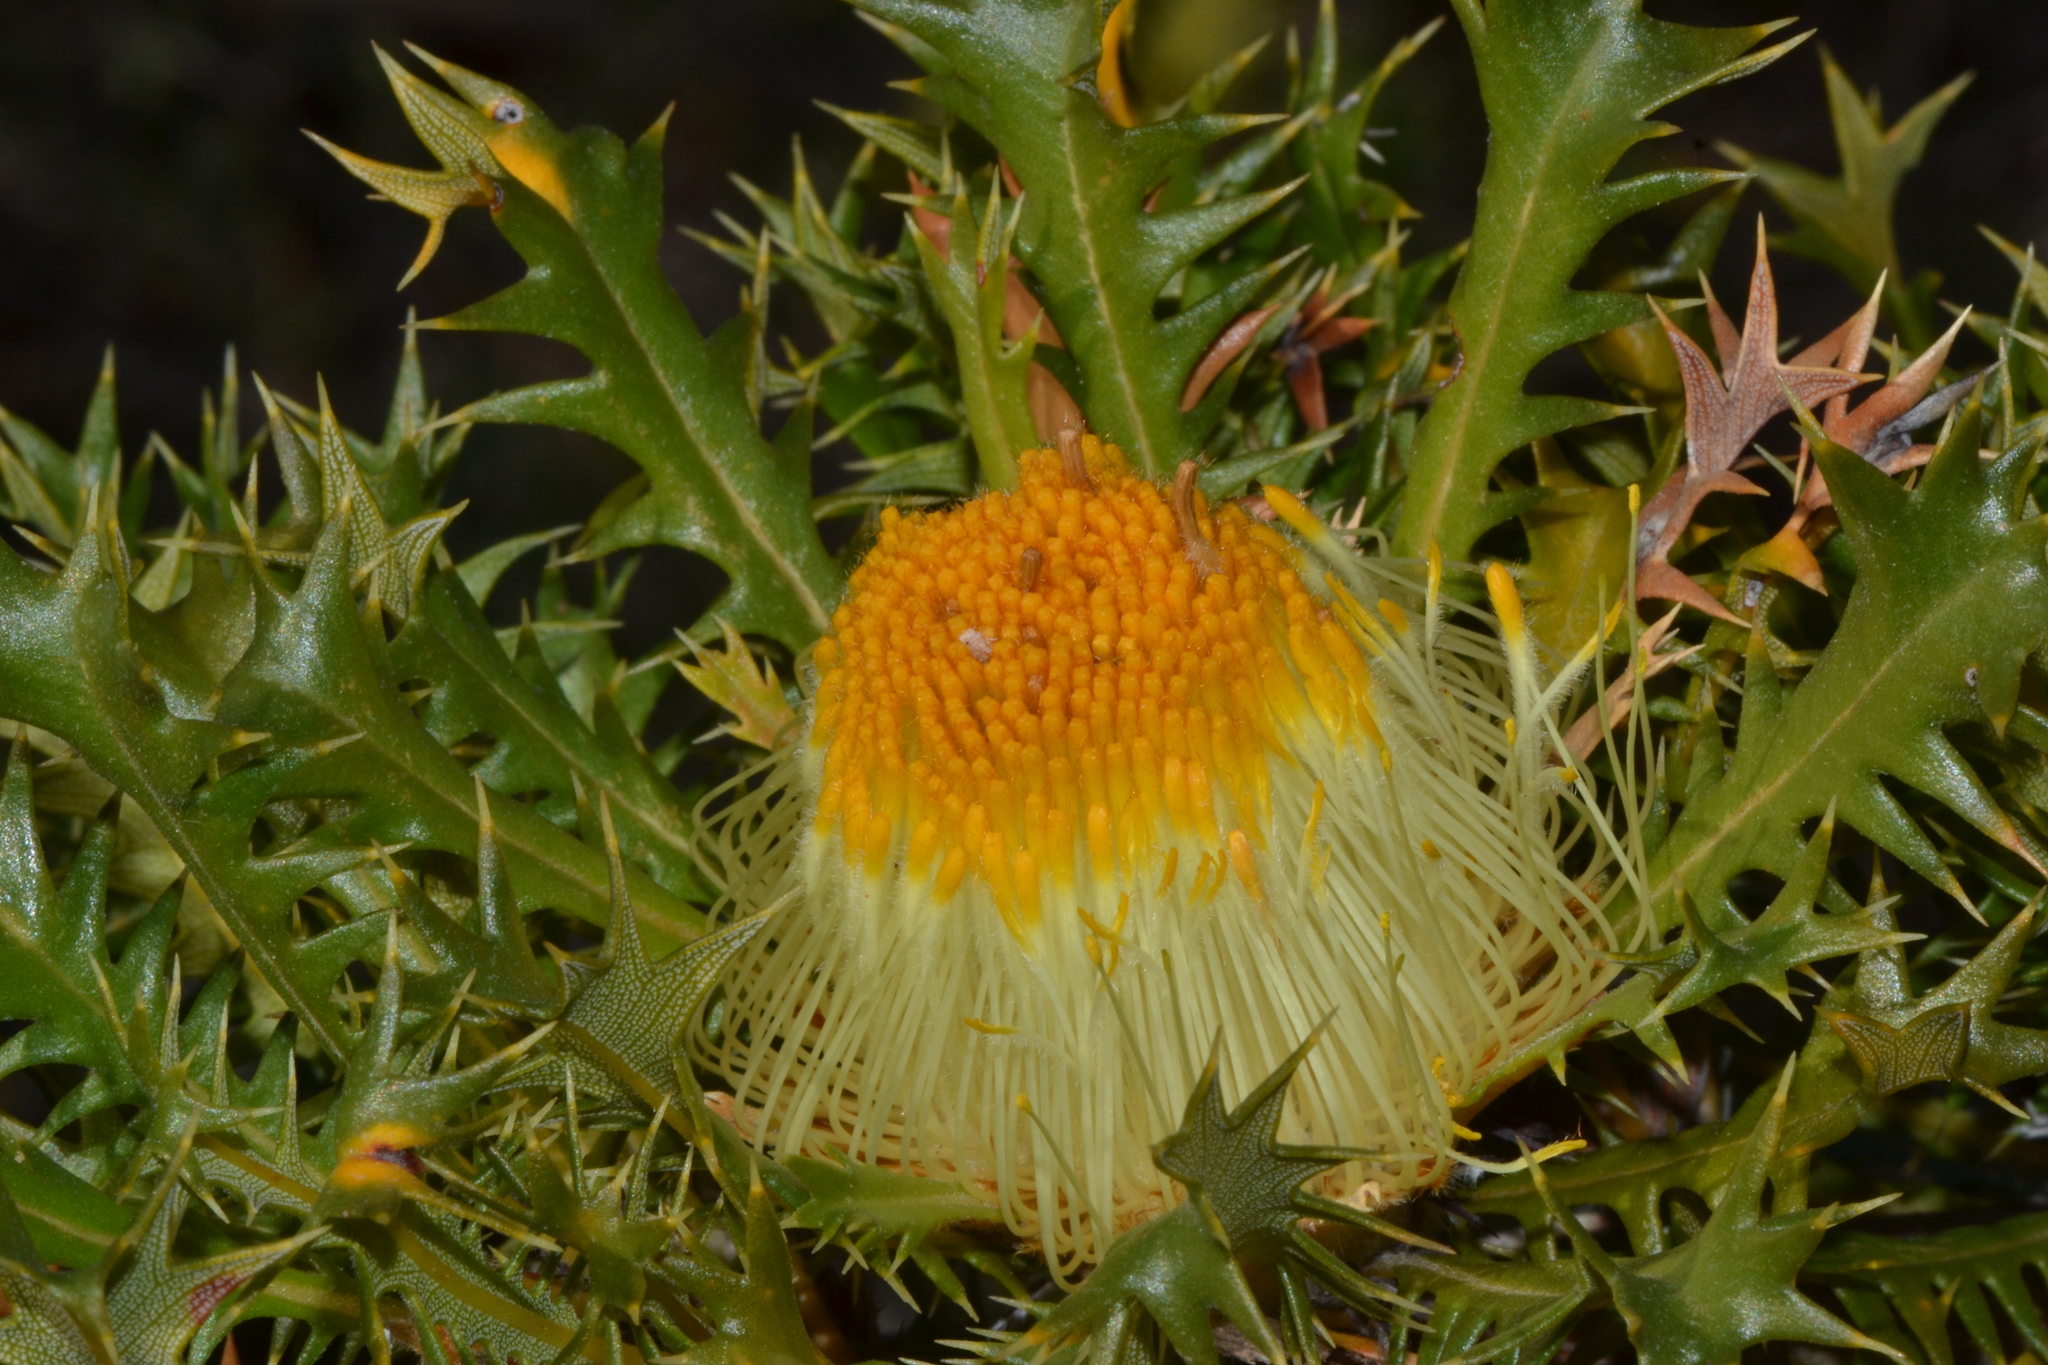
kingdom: Plantae
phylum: Tracheophyta
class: Magnoliopsida
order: Proteales
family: Proteaceae
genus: Banksia
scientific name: Banksia falcata
